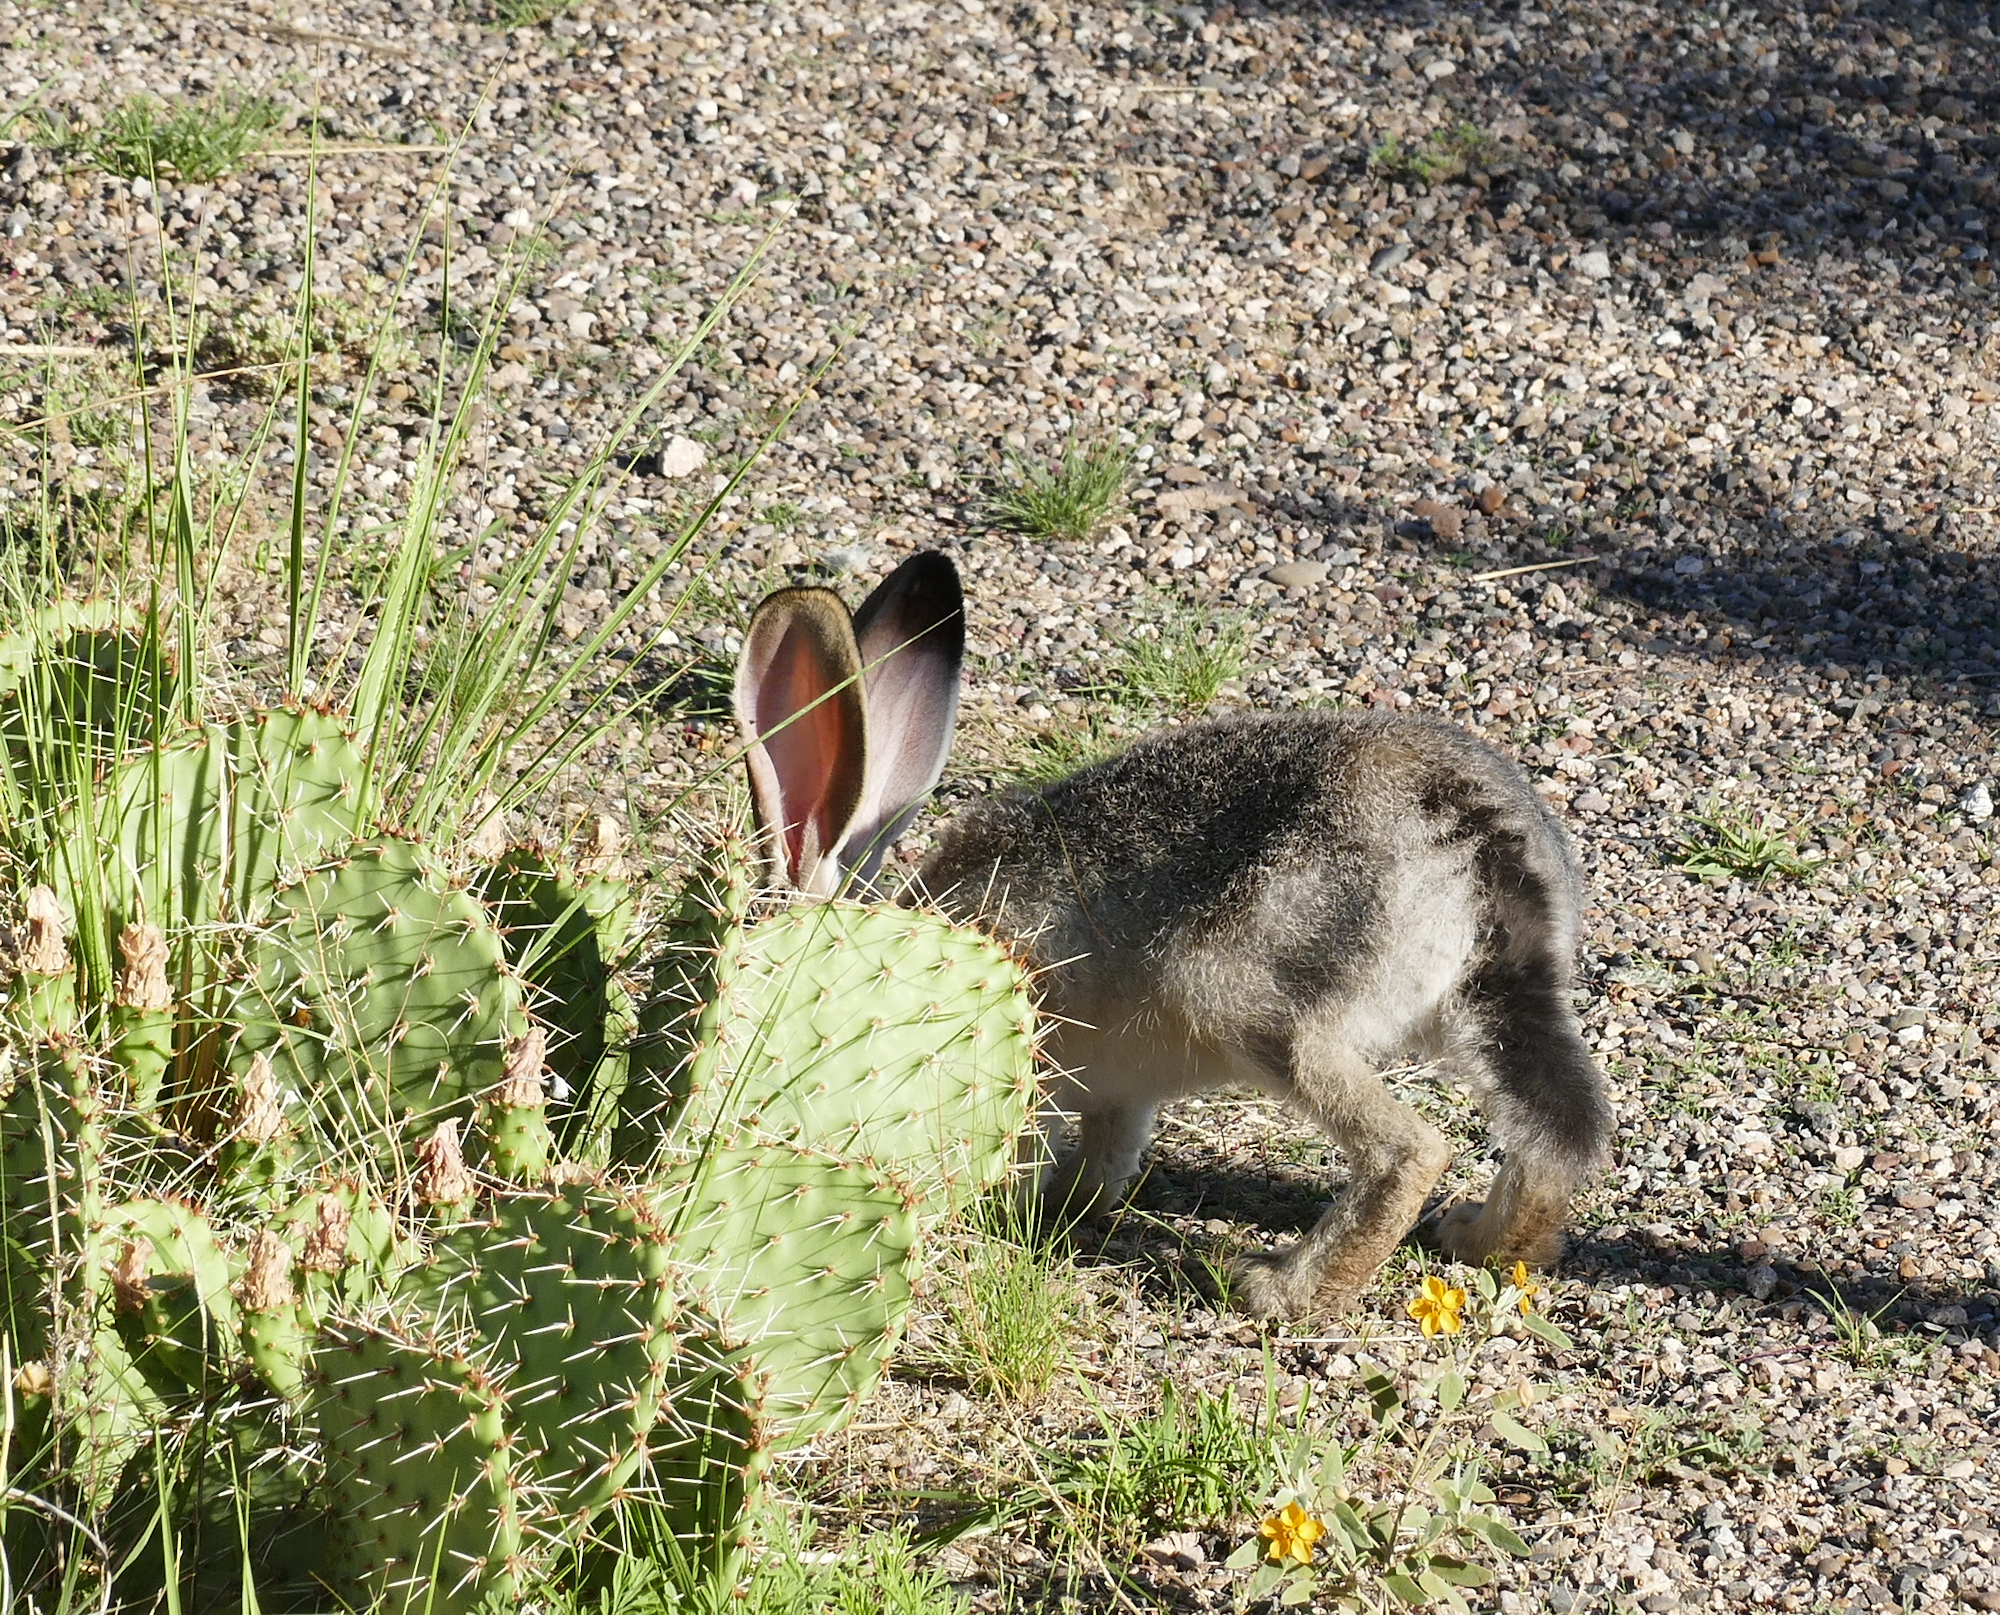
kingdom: Animalia
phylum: Chordata
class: Mammalia
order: Lagomorpha
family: Leporidae
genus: Lepus
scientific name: Lepus californicus
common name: Black-tailed jackrabbit
